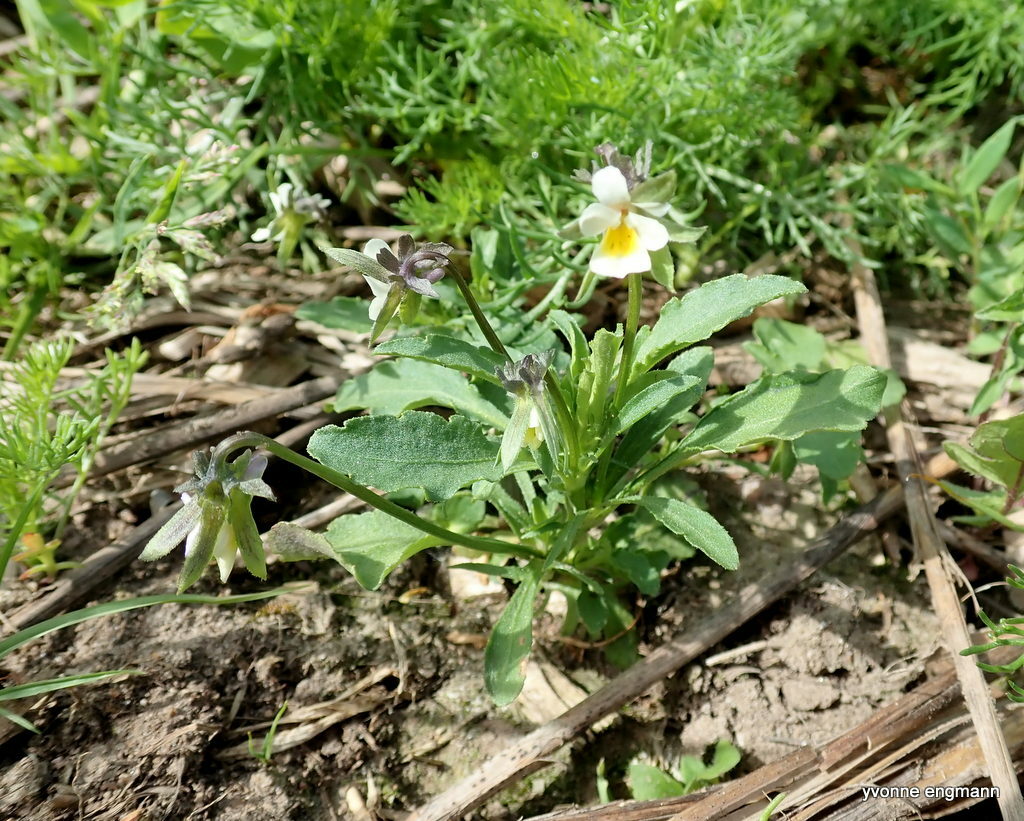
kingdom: Plantae
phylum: Tracheophyta
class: Magnoliopsida
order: Malpighiales
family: Violaceae
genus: Viola
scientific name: Viola arvensis
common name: Field pansy
